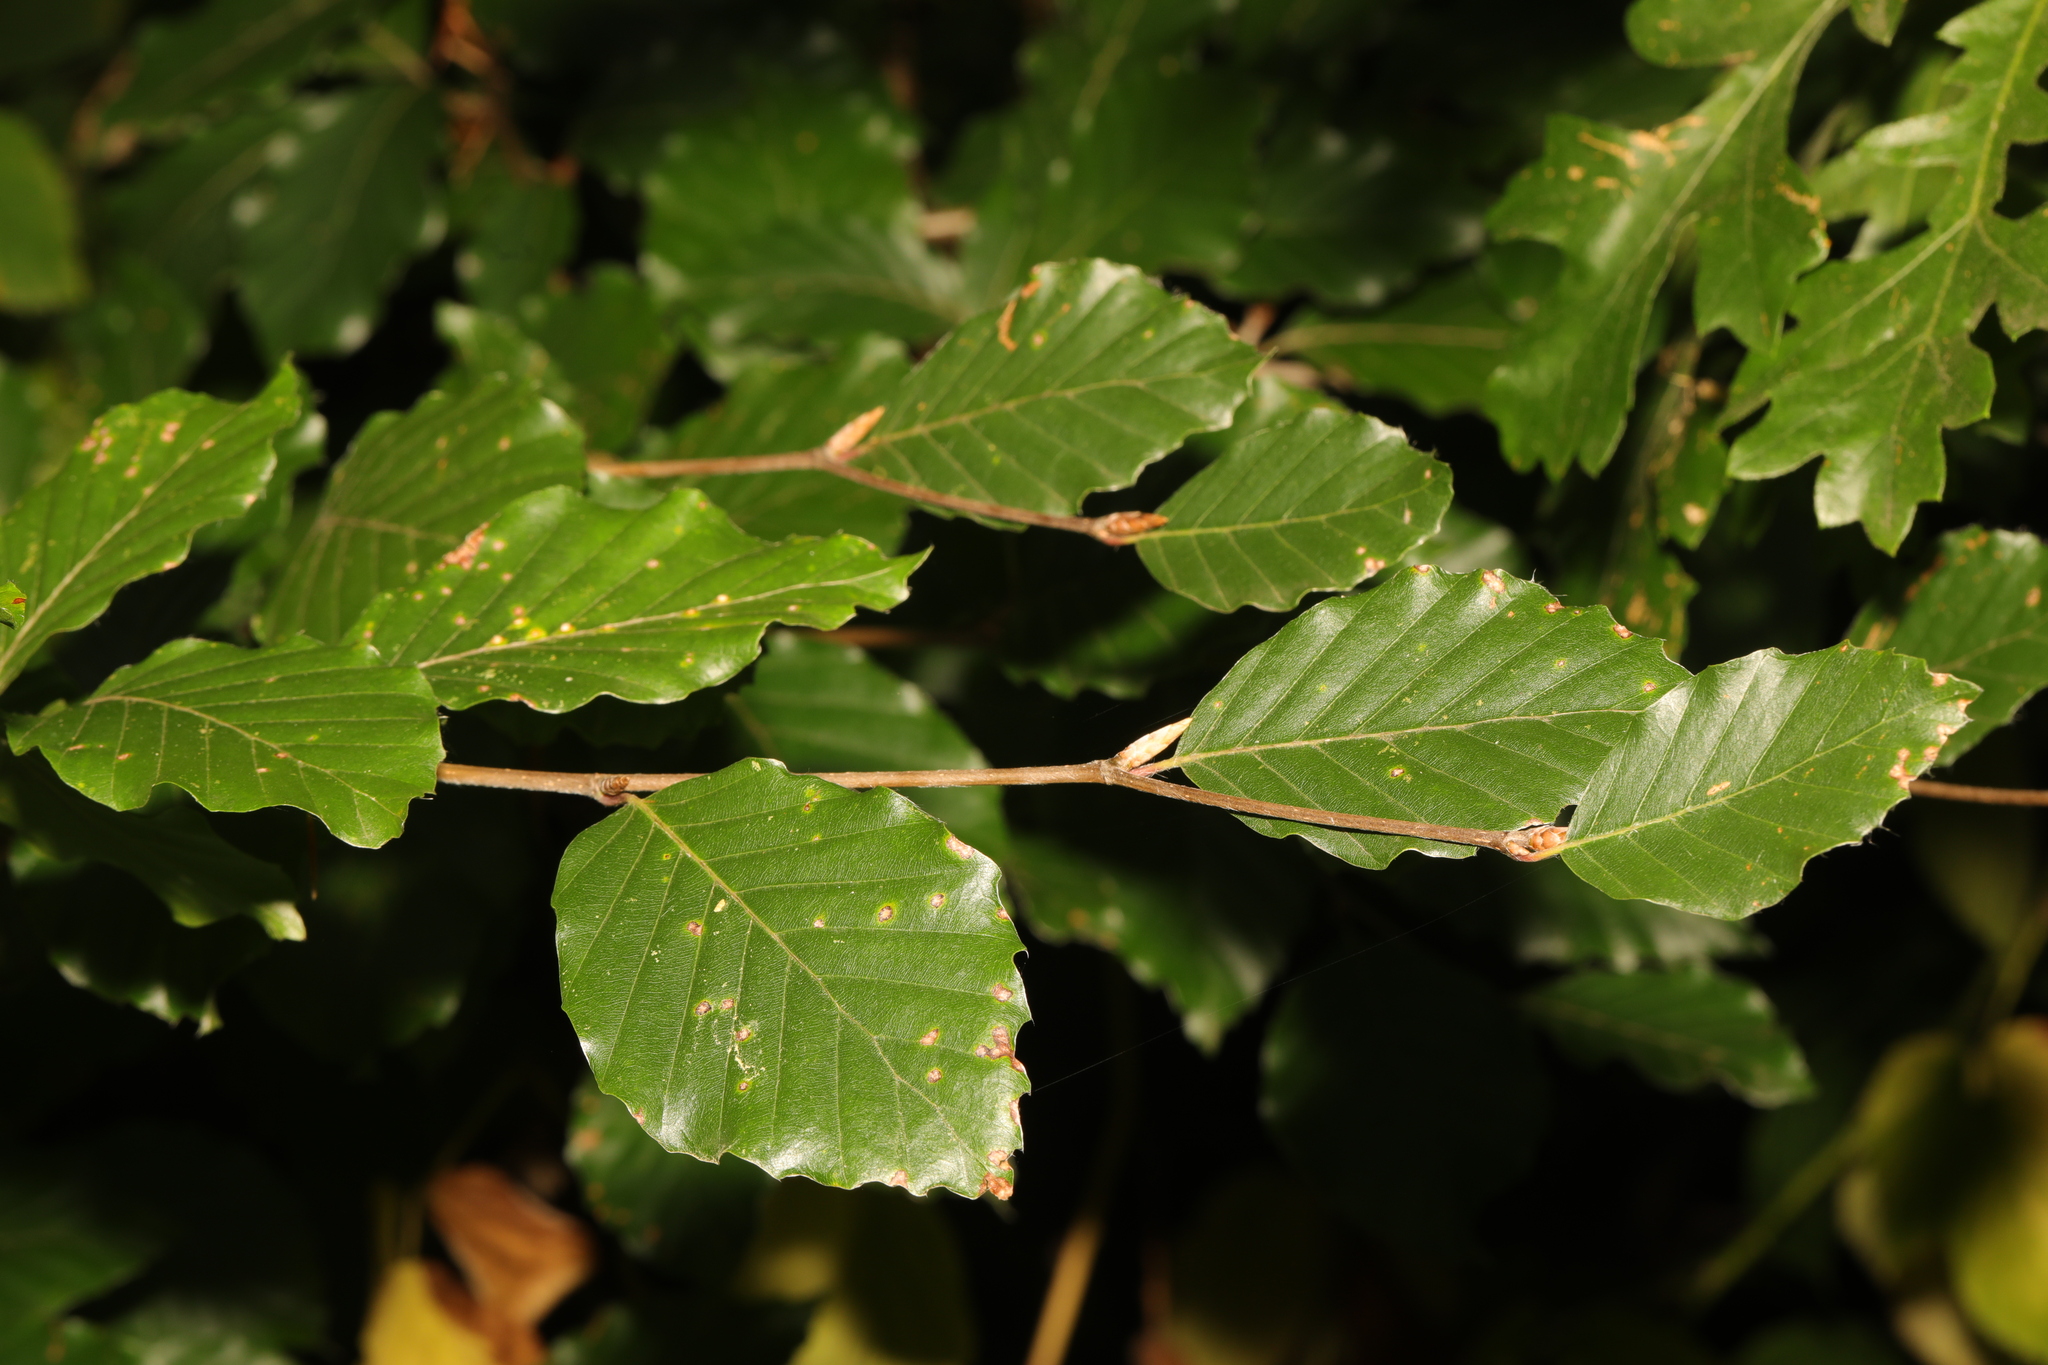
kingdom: Plantae
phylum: Tracheophyta
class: Magnoliopsida
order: Fagales
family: Fagaceae
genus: Fagus
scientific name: Fagus sylvatica
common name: Beech
